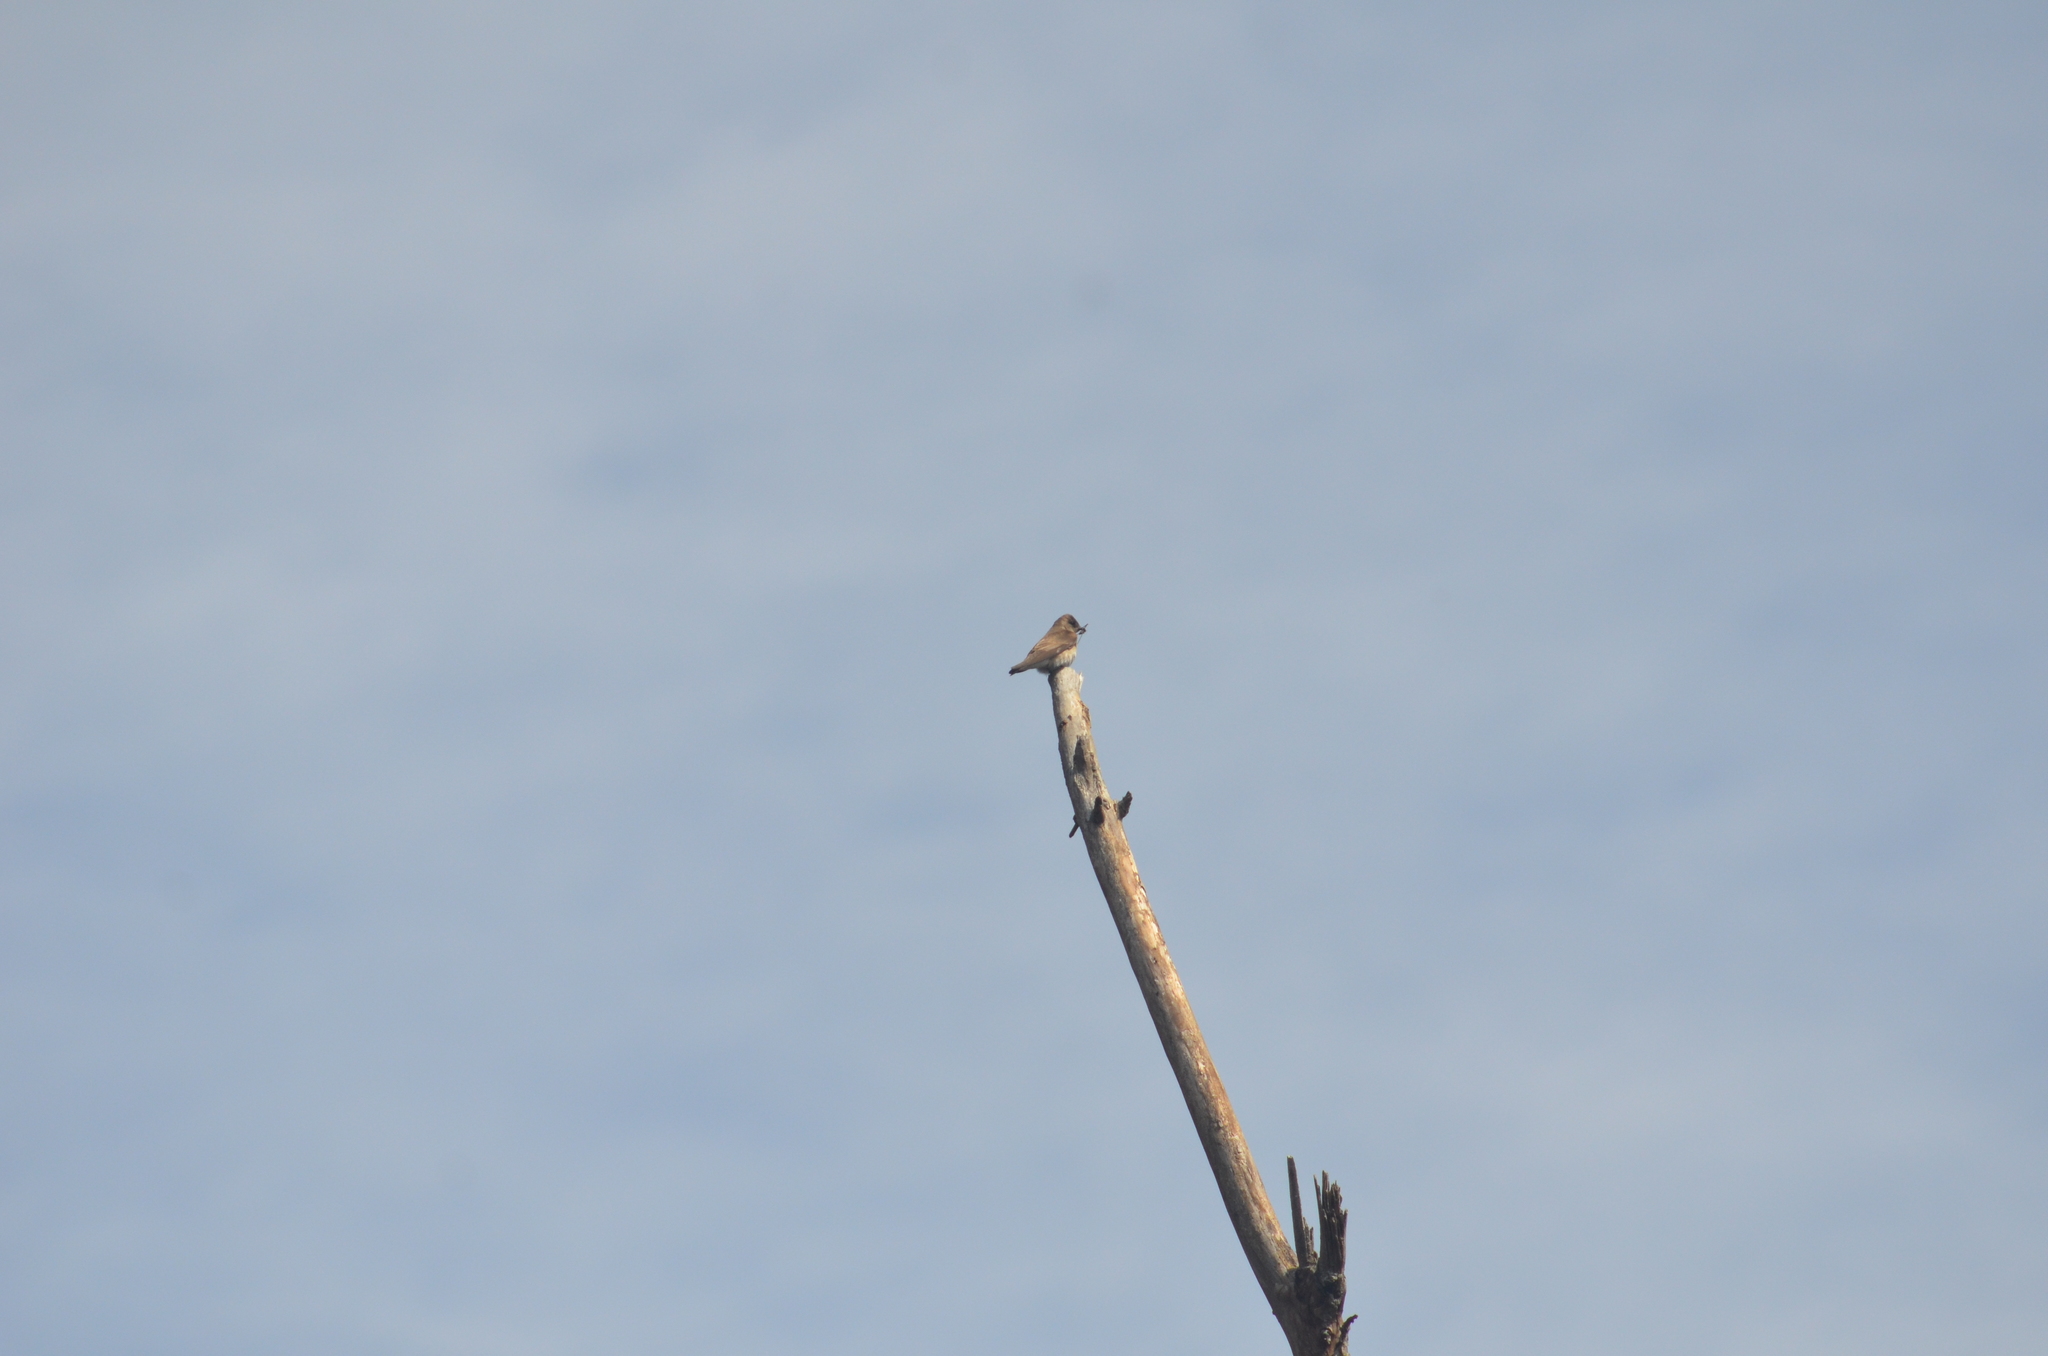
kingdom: Animalia
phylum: Chordata
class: Aves
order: Passeriformes
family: Hirundinidae
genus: Stelgidopteryx
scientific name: Stelgidopteryx serripennis
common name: Northern rough-winged swallow
